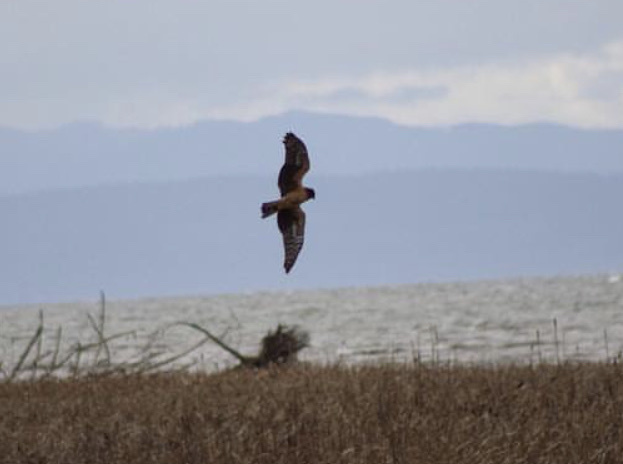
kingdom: Animalia
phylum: Chordata
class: Aves
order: Accipitriformes
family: Accipitridae
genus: Circus
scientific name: Circus cyaneus
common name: Hen harrier
